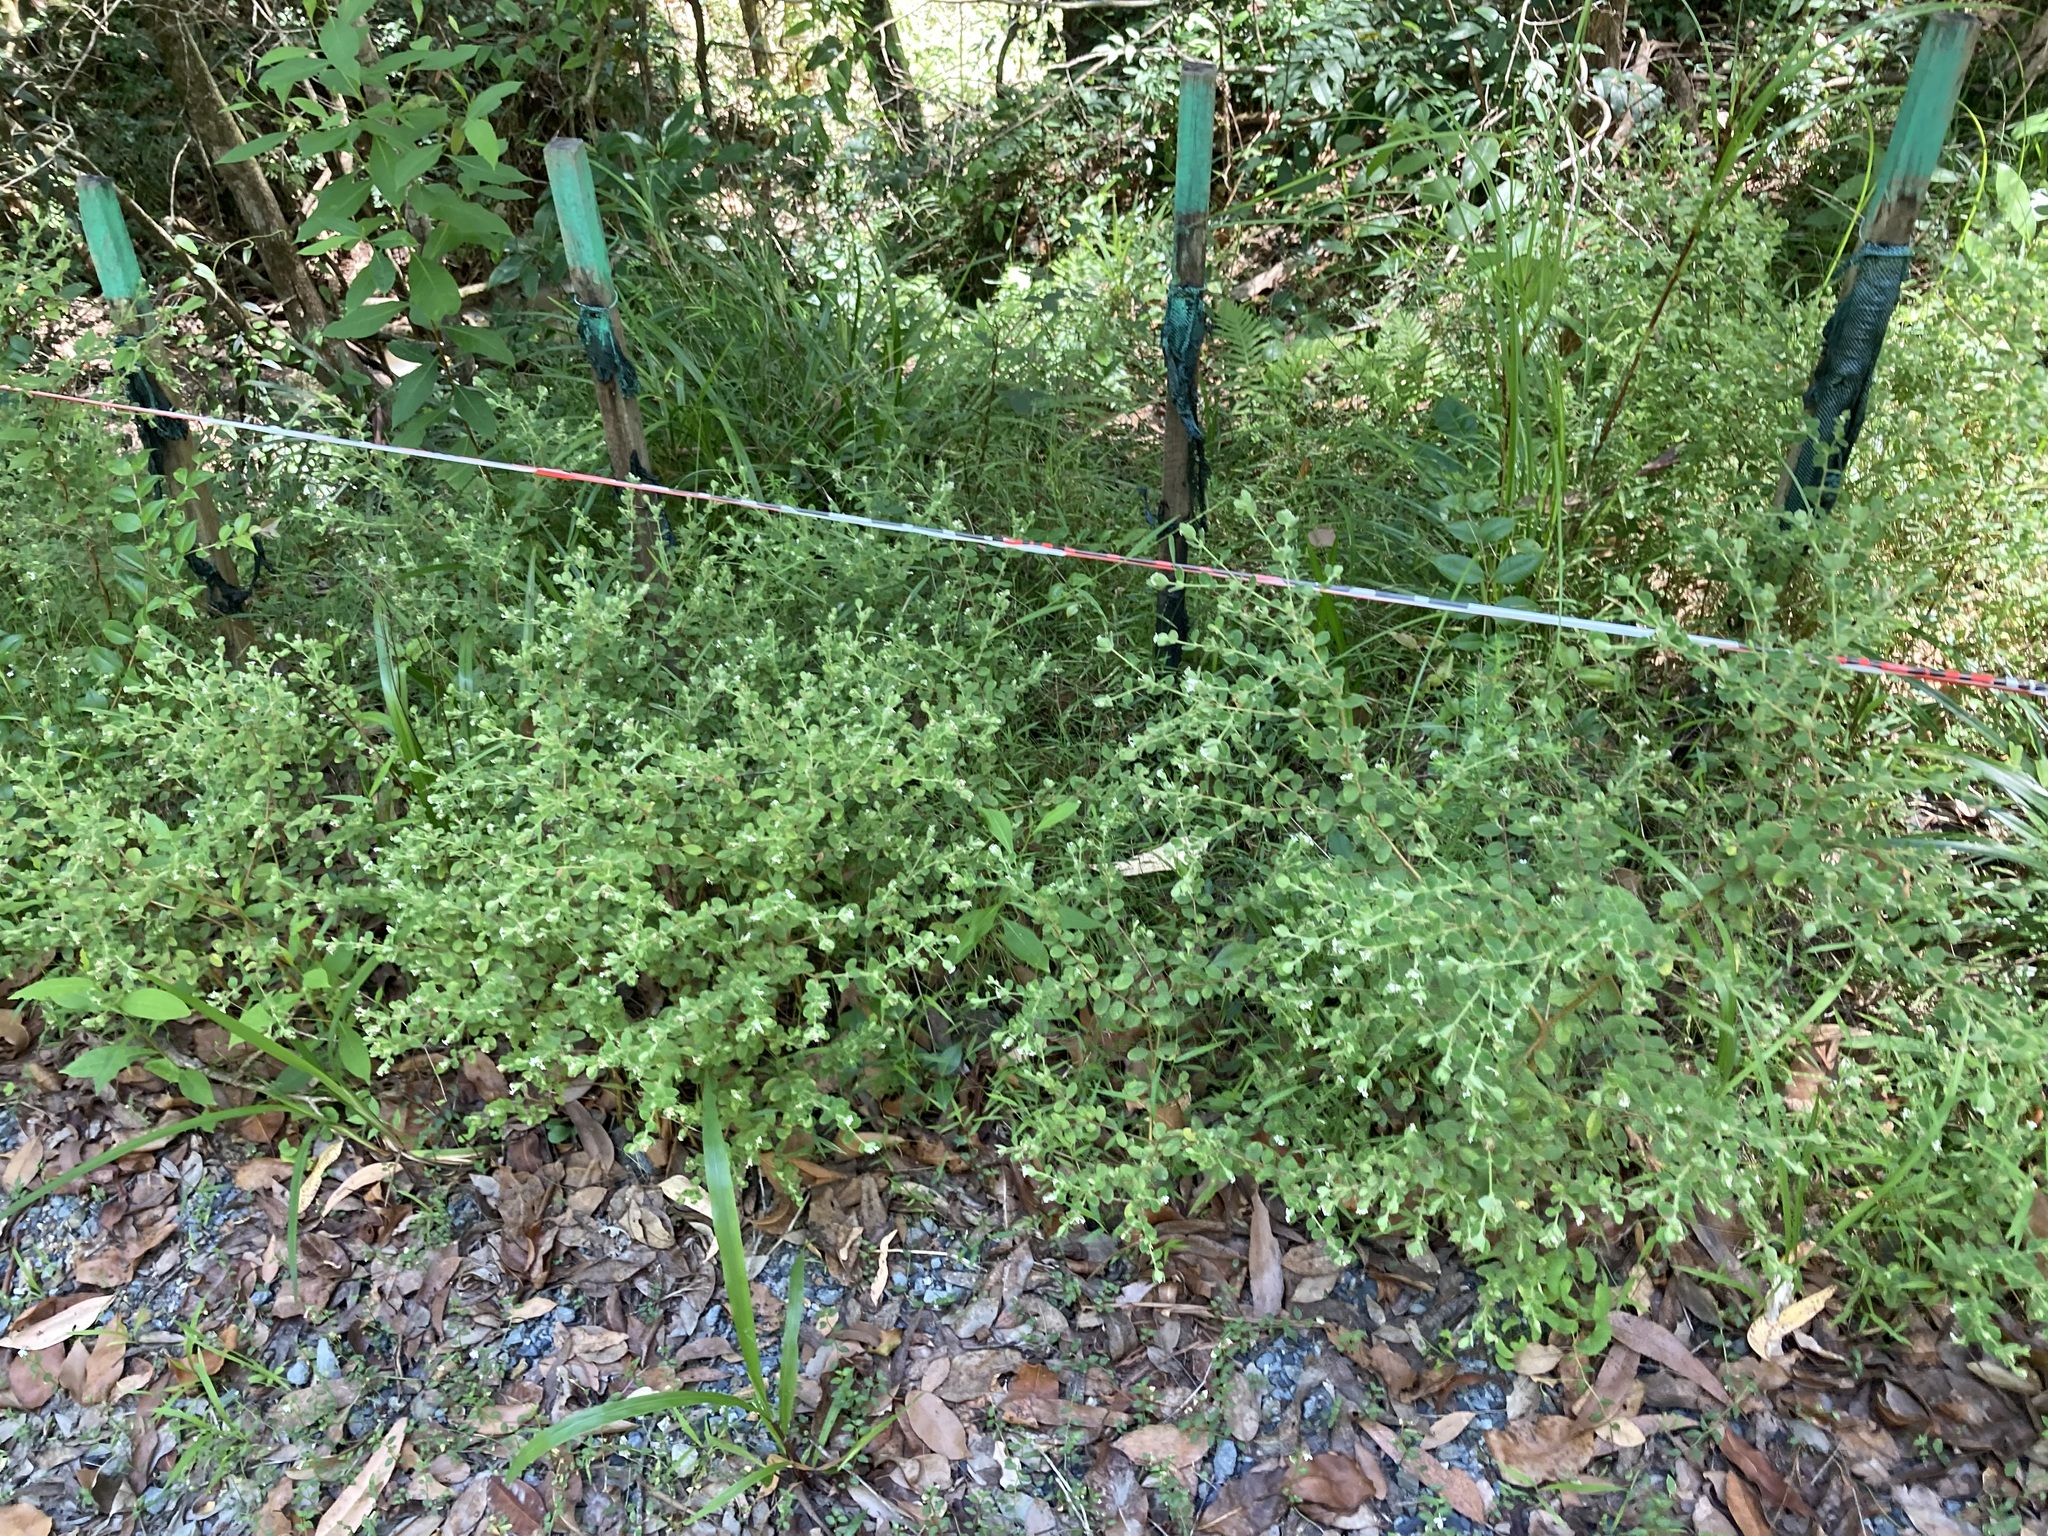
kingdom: Plantae
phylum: Tracheophyta
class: Magnoliopsida
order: Malvales
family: Thymelaeaceae
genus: Pimelea
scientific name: Pimelea altior
